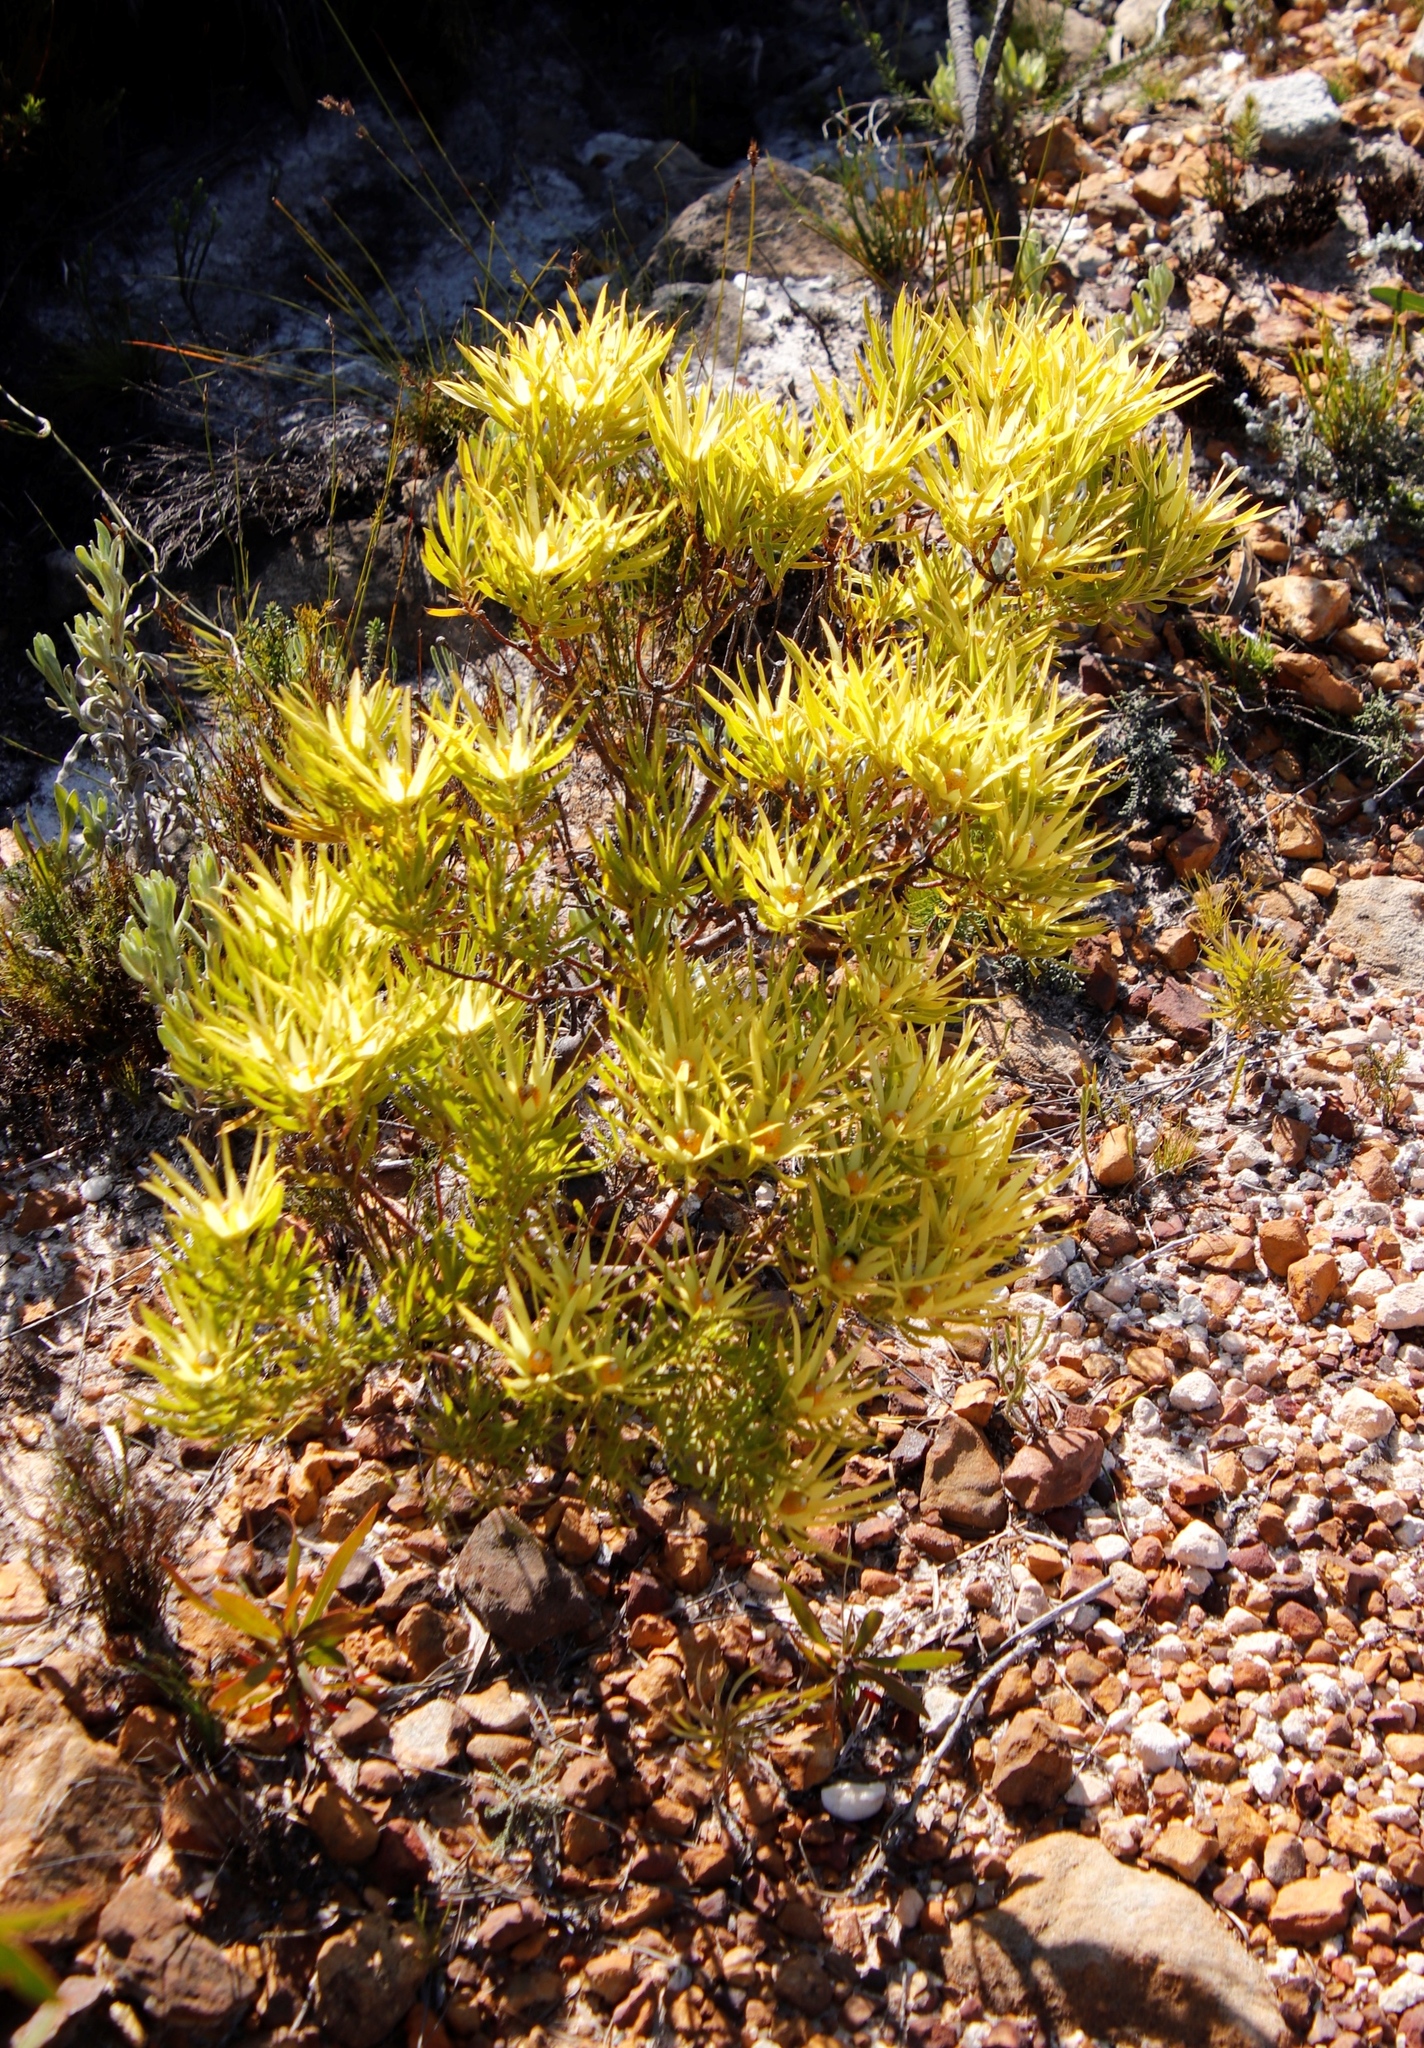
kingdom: Plantae
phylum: Tracheophyta
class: Magnoliopsida
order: Proteales
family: Proteaceae
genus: Leucadendron
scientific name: Leucadendron xanthoconus
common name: Sickle-leaf conebush
